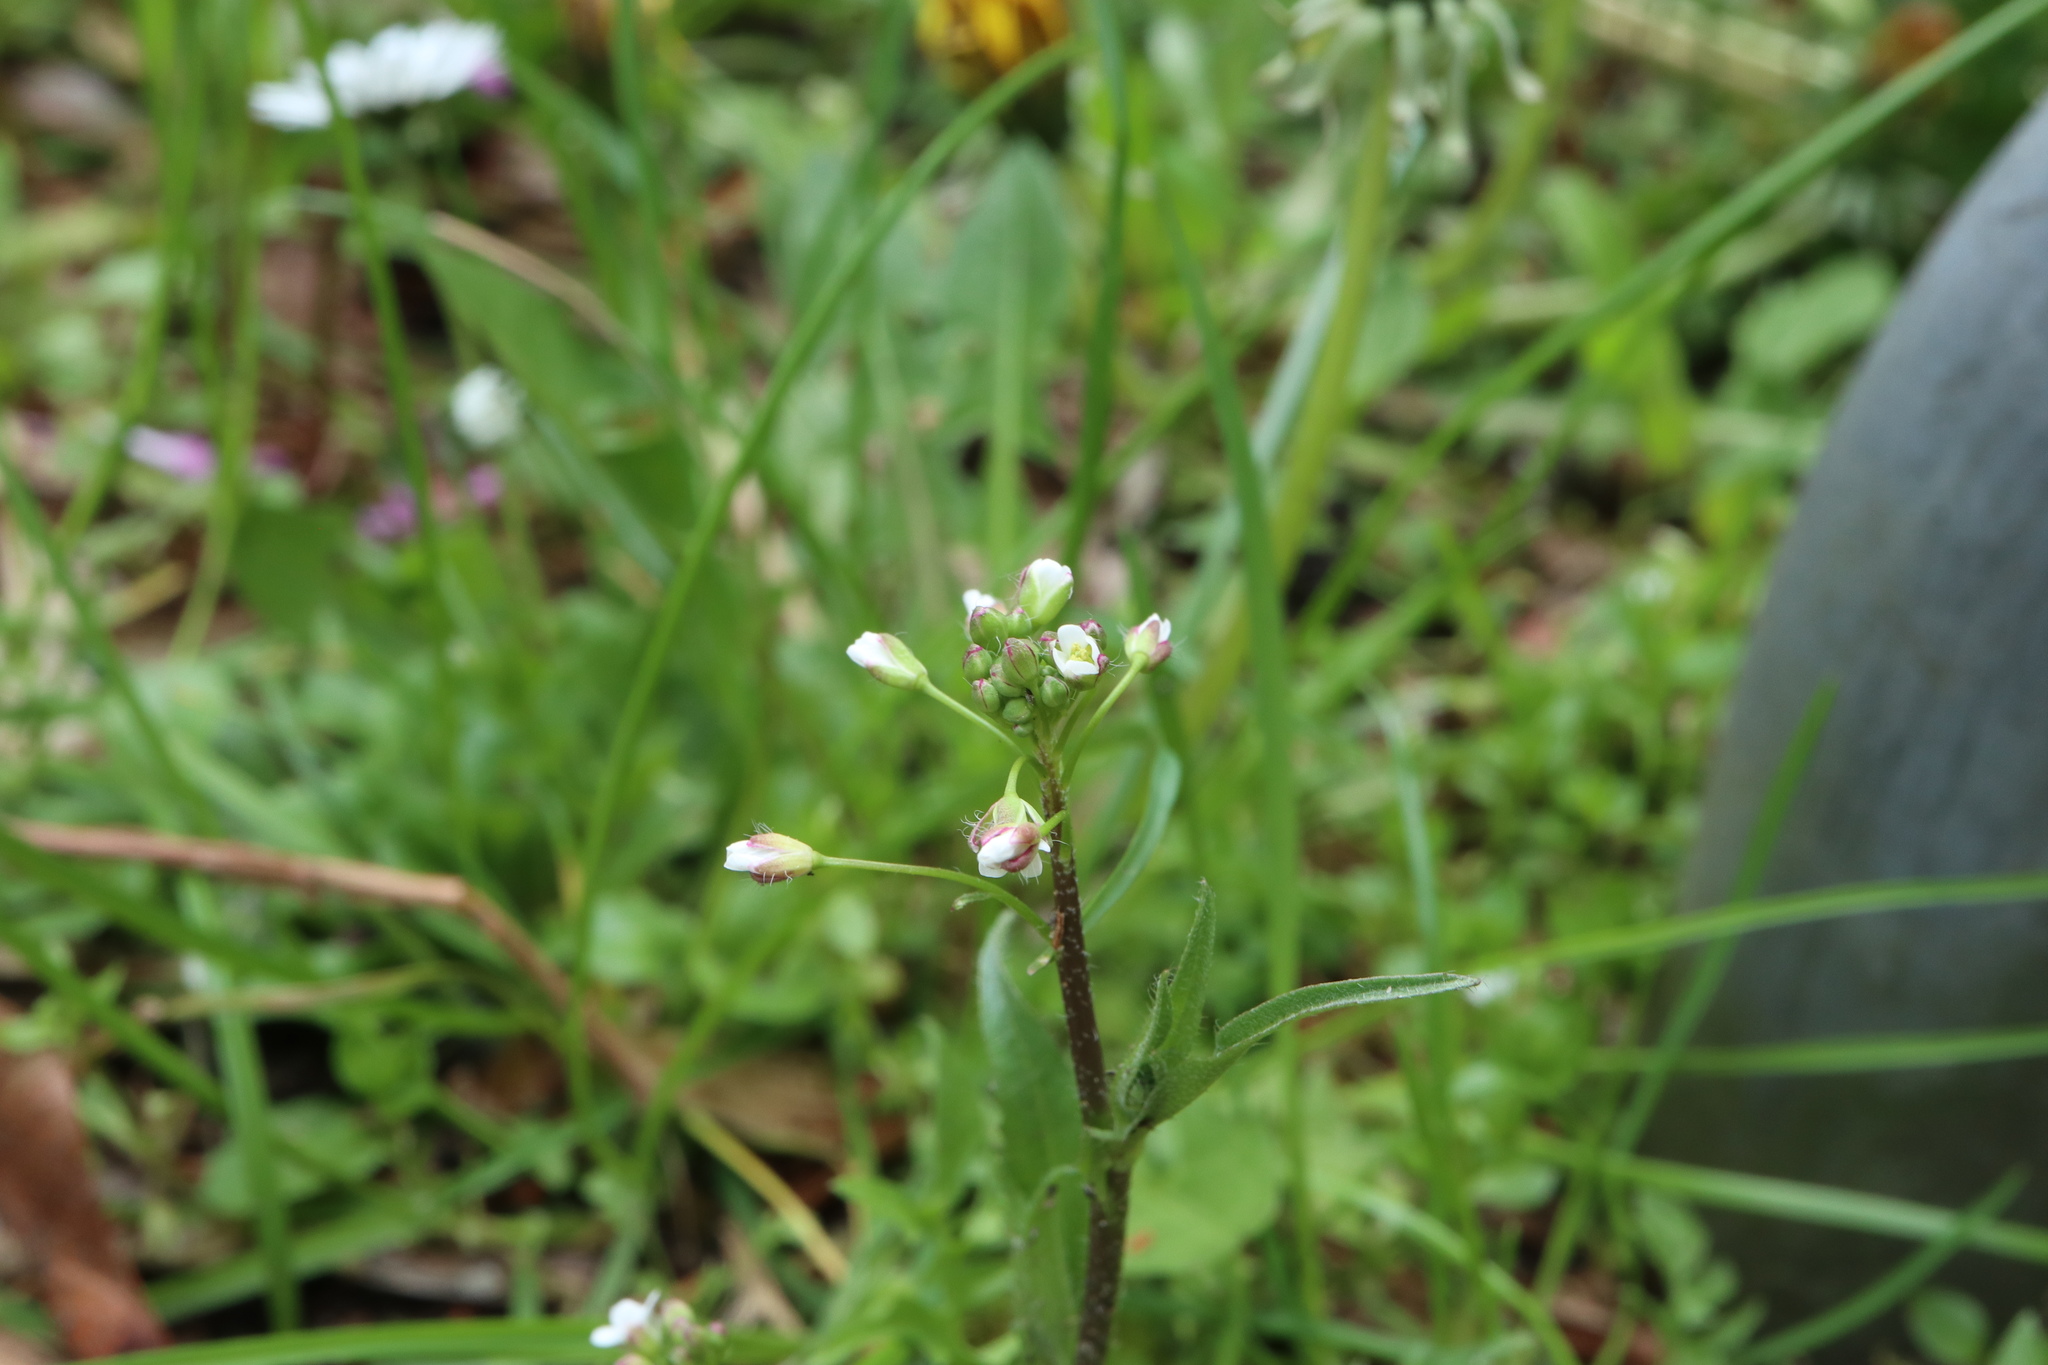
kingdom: Plantae
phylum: Tracheophyta
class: Magnoliopsida
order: Brassicales
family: Brassicaceae
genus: Capsella
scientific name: Capsella bursa-pastoris
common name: Shepherd's purse
